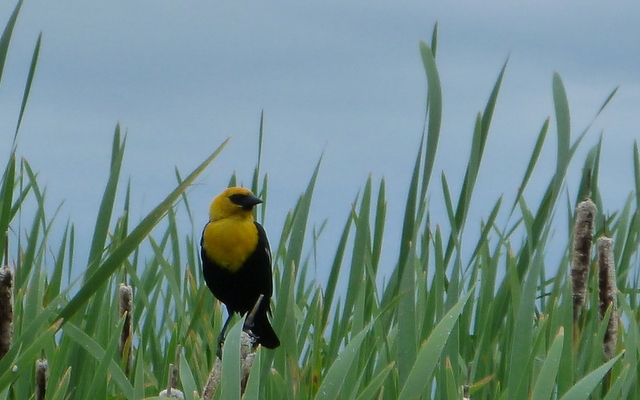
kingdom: Animalia
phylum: Chordata
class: Aves
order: Passeriformes
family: Icteridae
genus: Xanthocephalus
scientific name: Xanthocephalus xanthocephalus
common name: Yellow-headed blackbird
